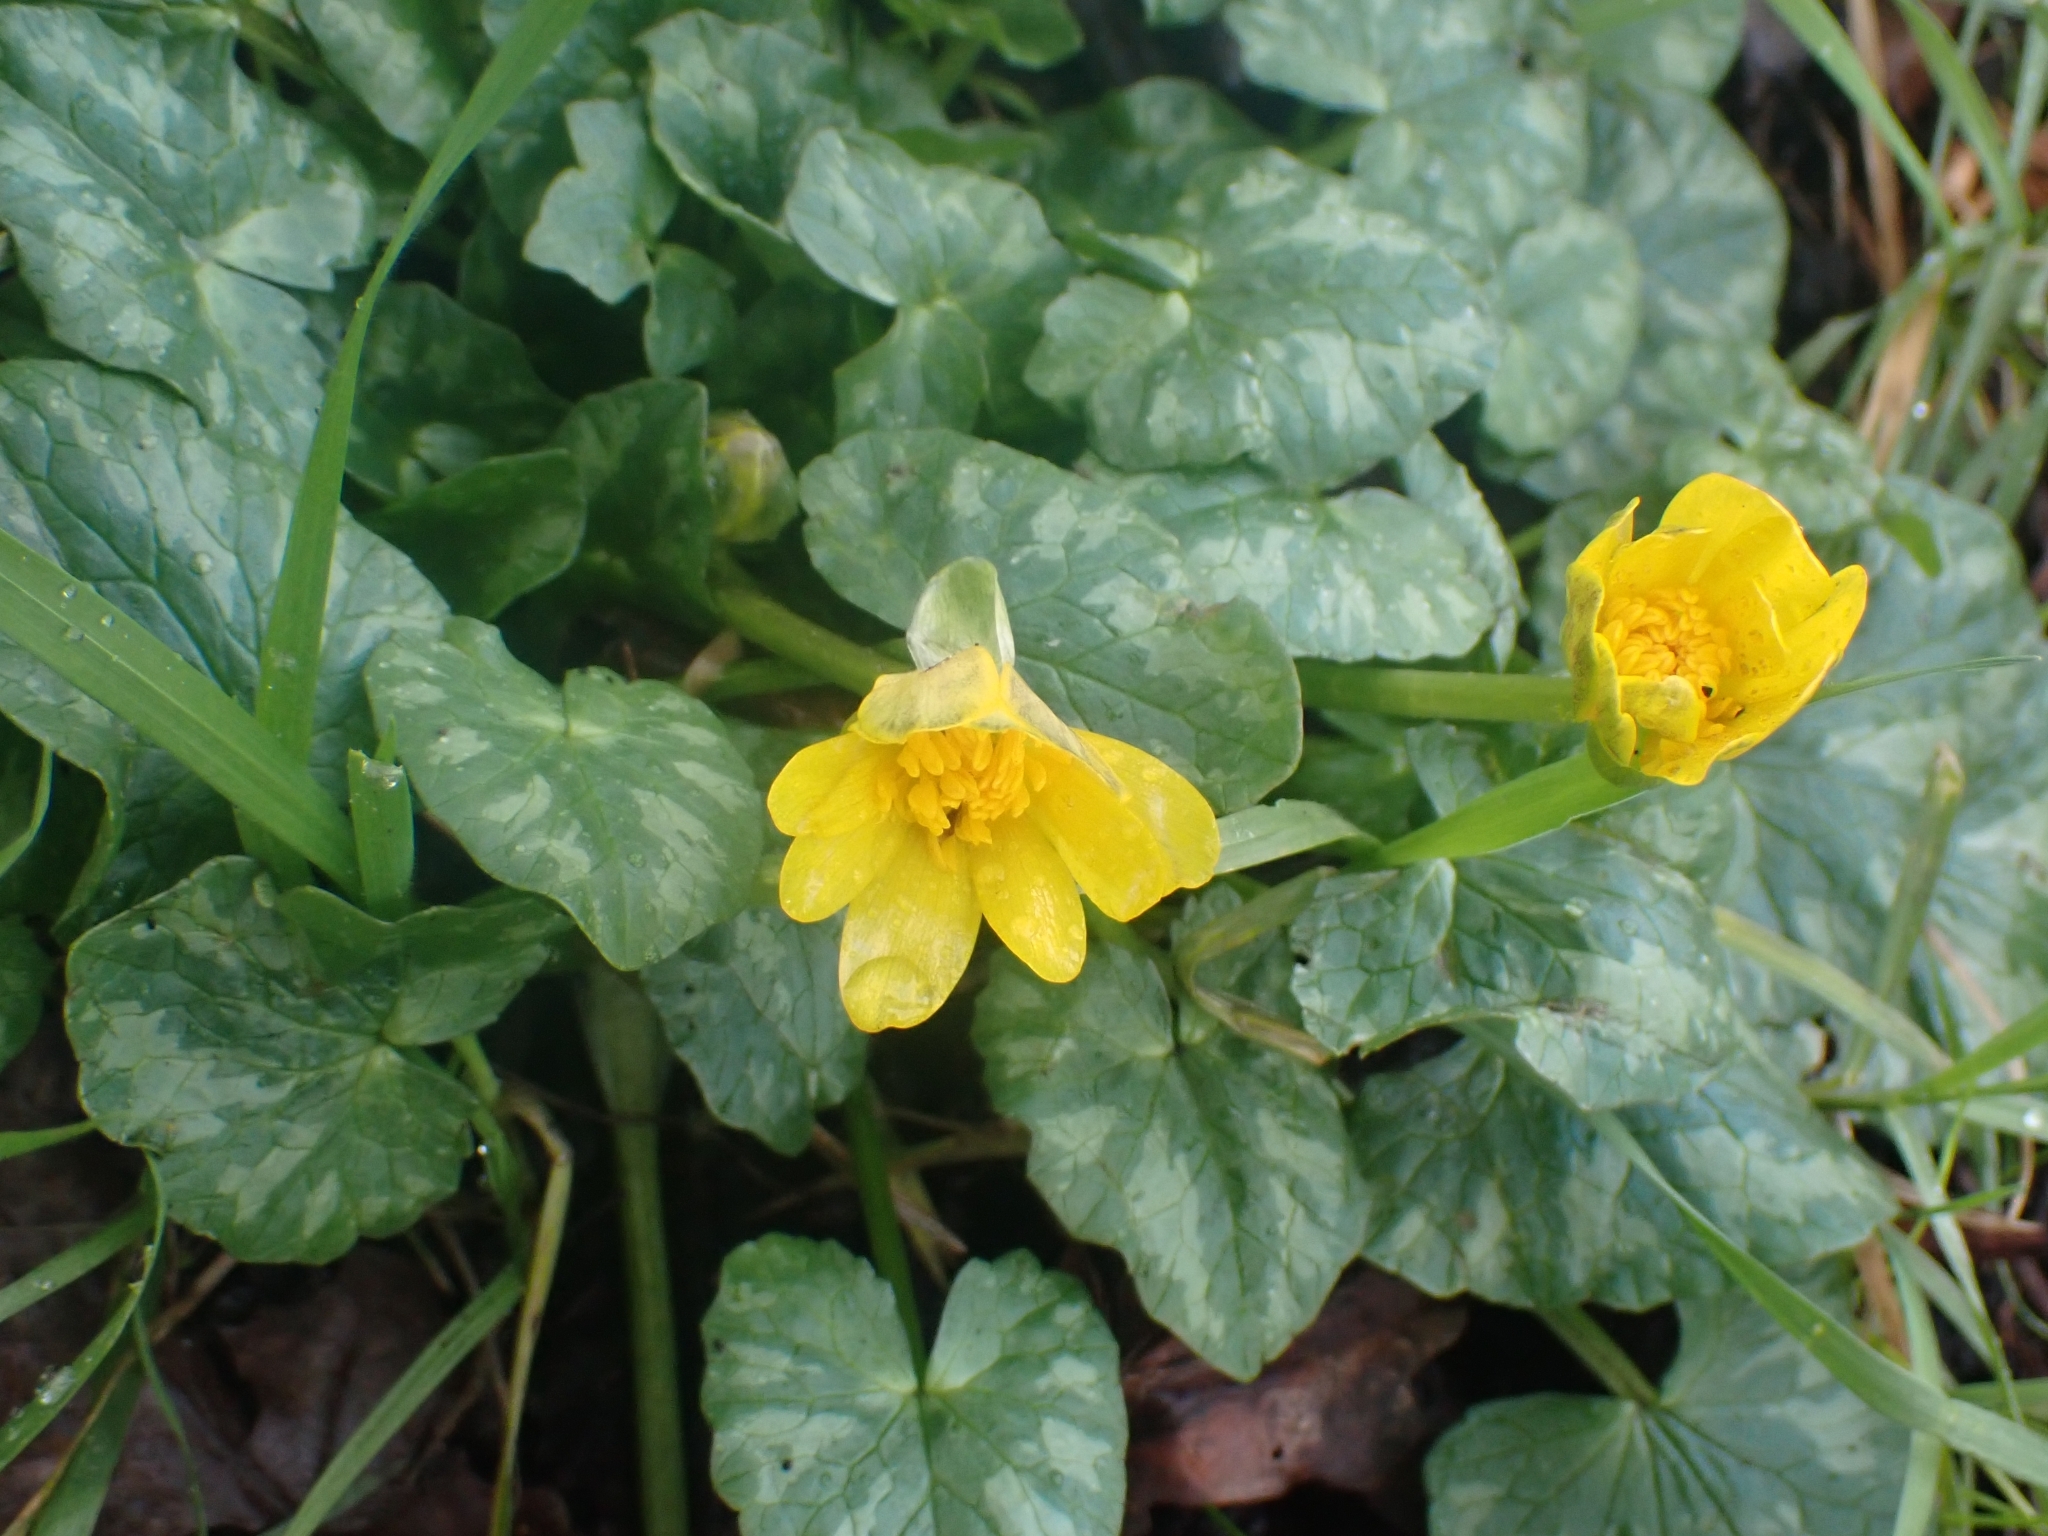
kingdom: Plantae
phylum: Tracheophyta
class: Magnoliopsida
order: Ranunculales
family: Ranunculaceae
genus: Ficaria
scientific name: Ficaria verna
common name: Lesser celandine
